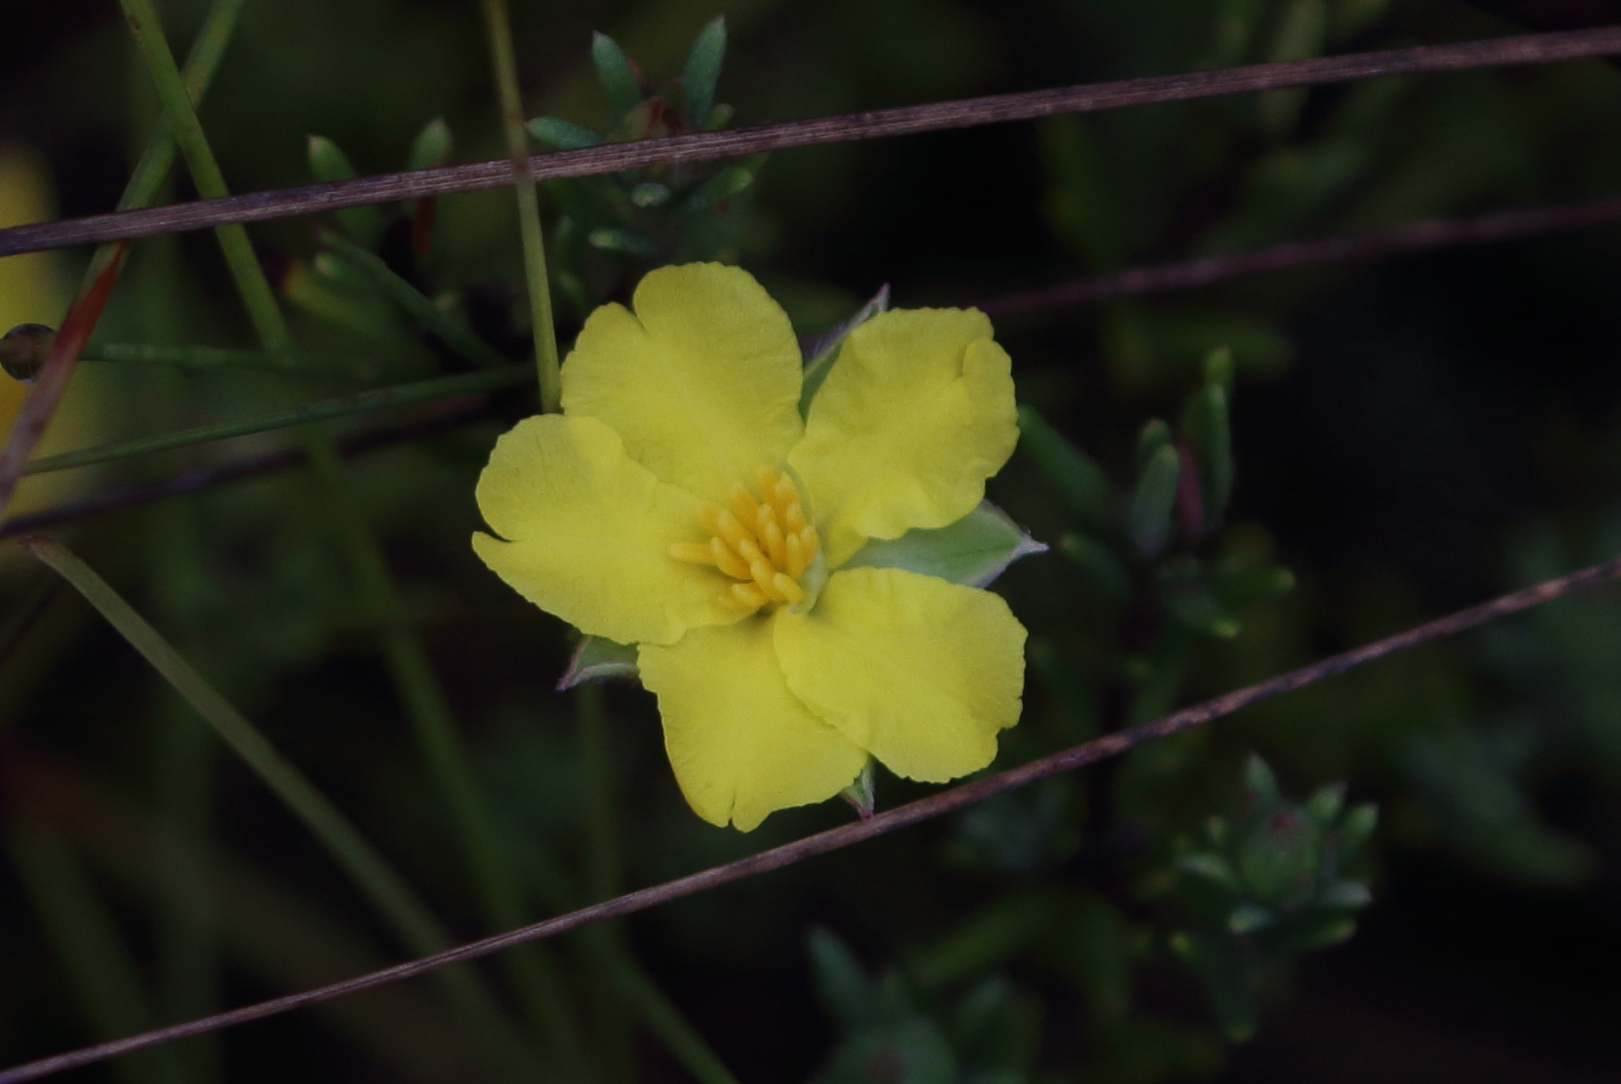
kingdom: Plantae
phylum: Tracheophyta
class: Magnoliopsida
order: Dilleniales
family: Dilleniaceae
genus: Hibbertia
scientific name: Hibbertia stricta
